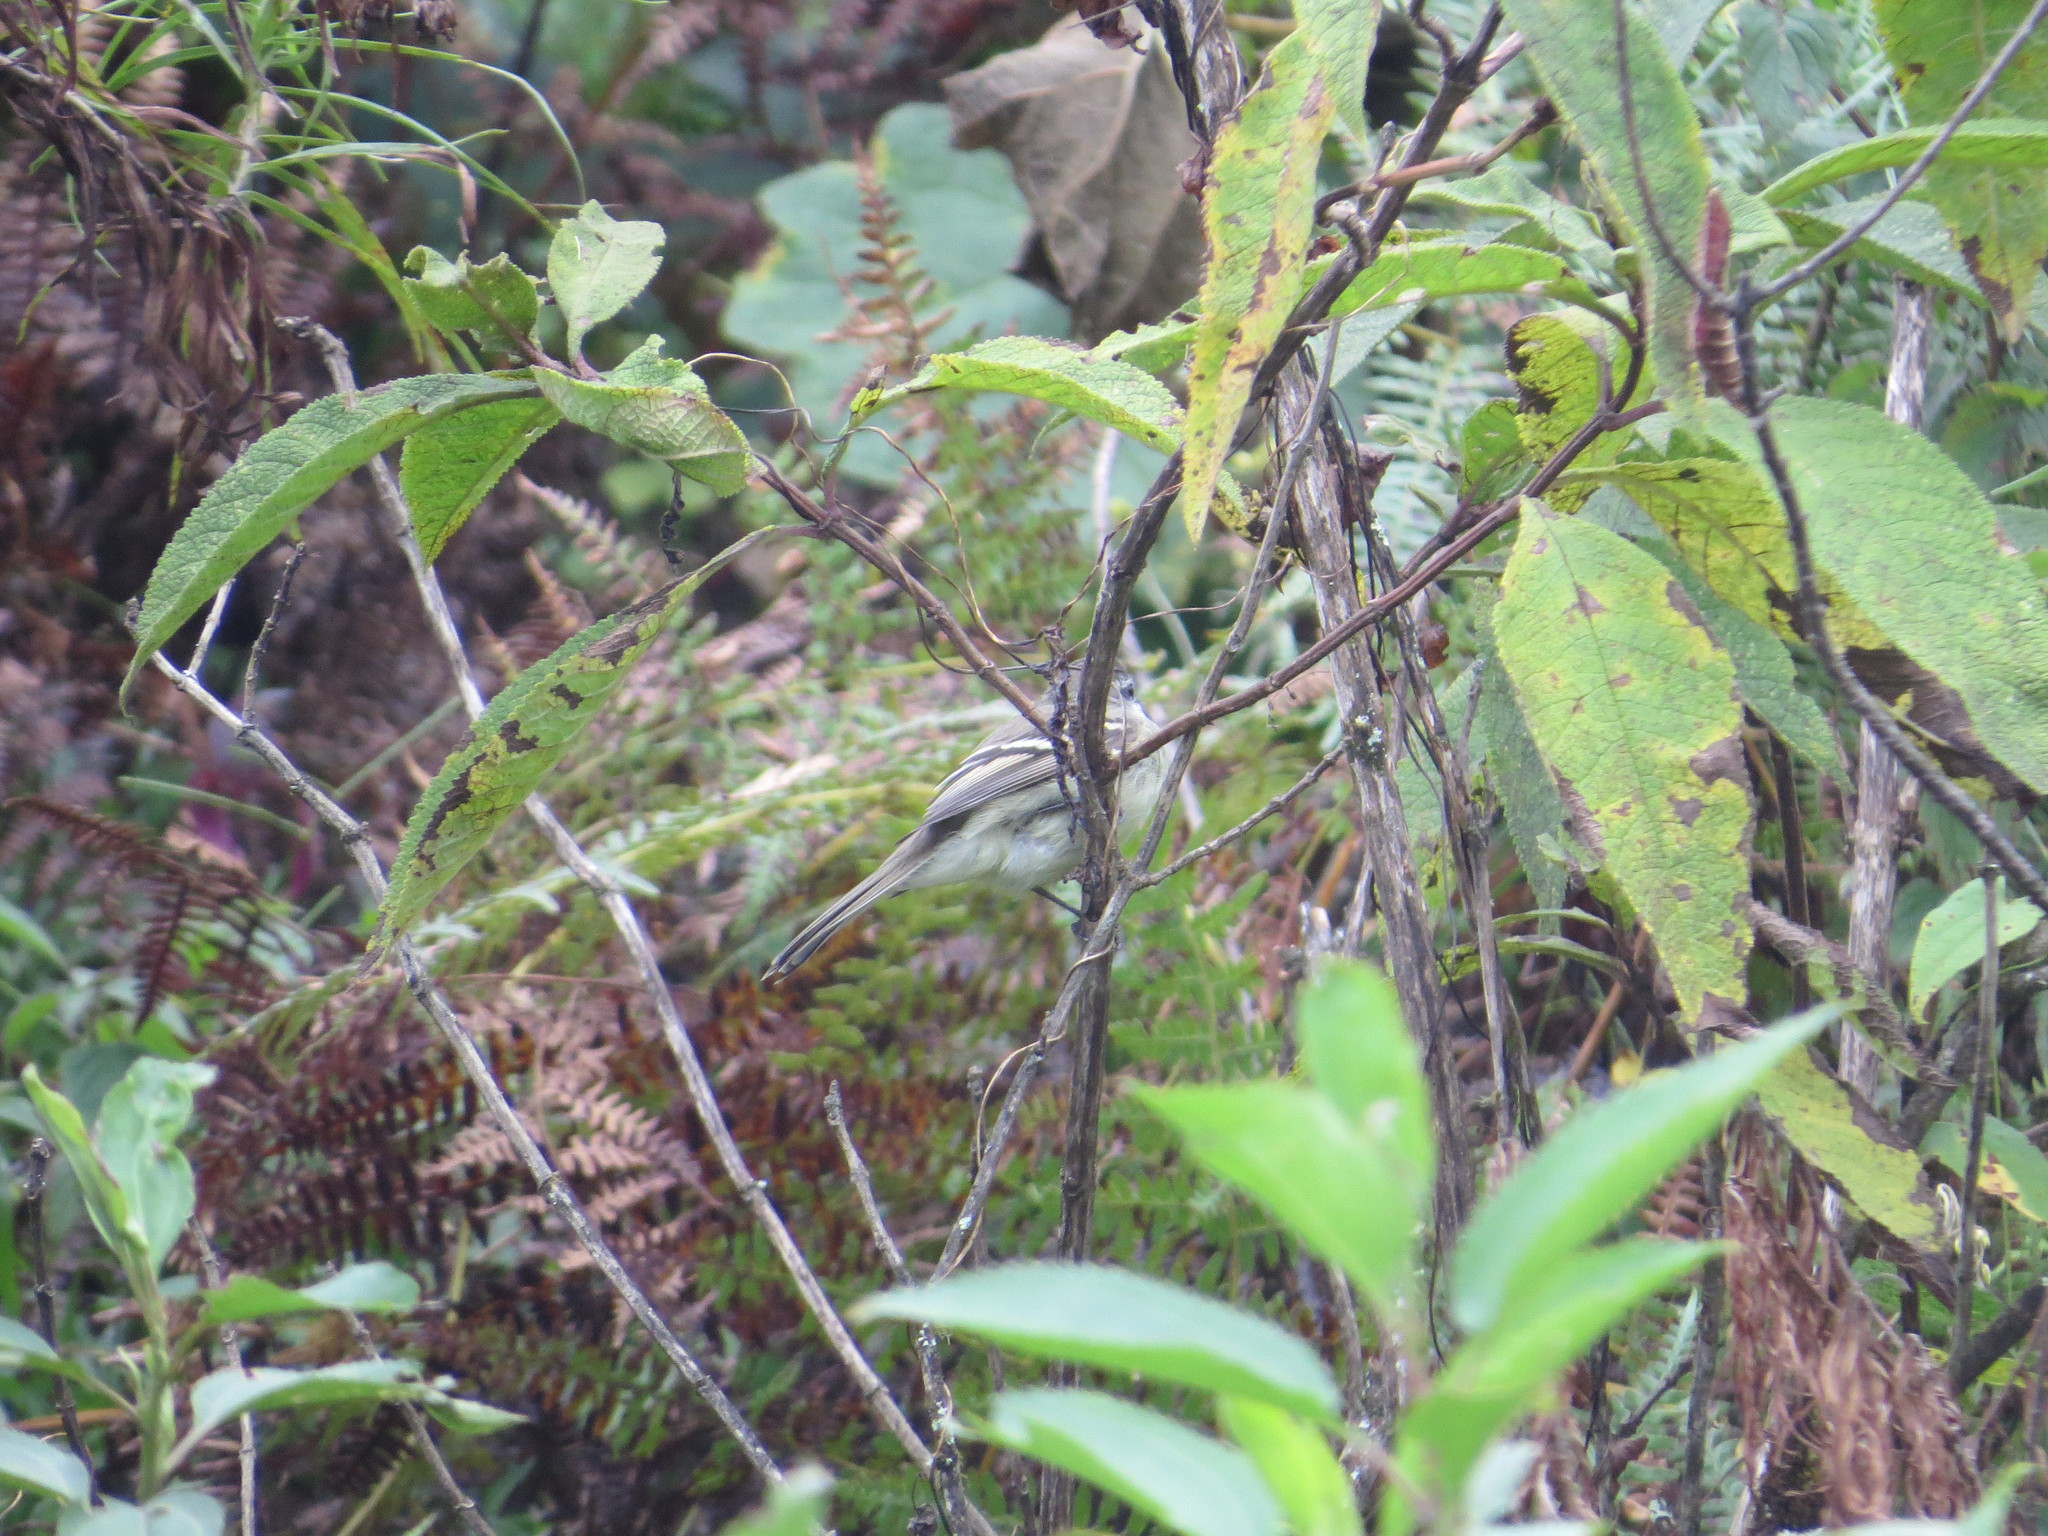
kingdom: Animalia
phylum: Chordata
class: Aves
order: Passeriformes
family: Tyrannidae
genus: Mecocerculus
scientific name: Mecocerculus leucophrys
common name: White-throated tyrannulet
